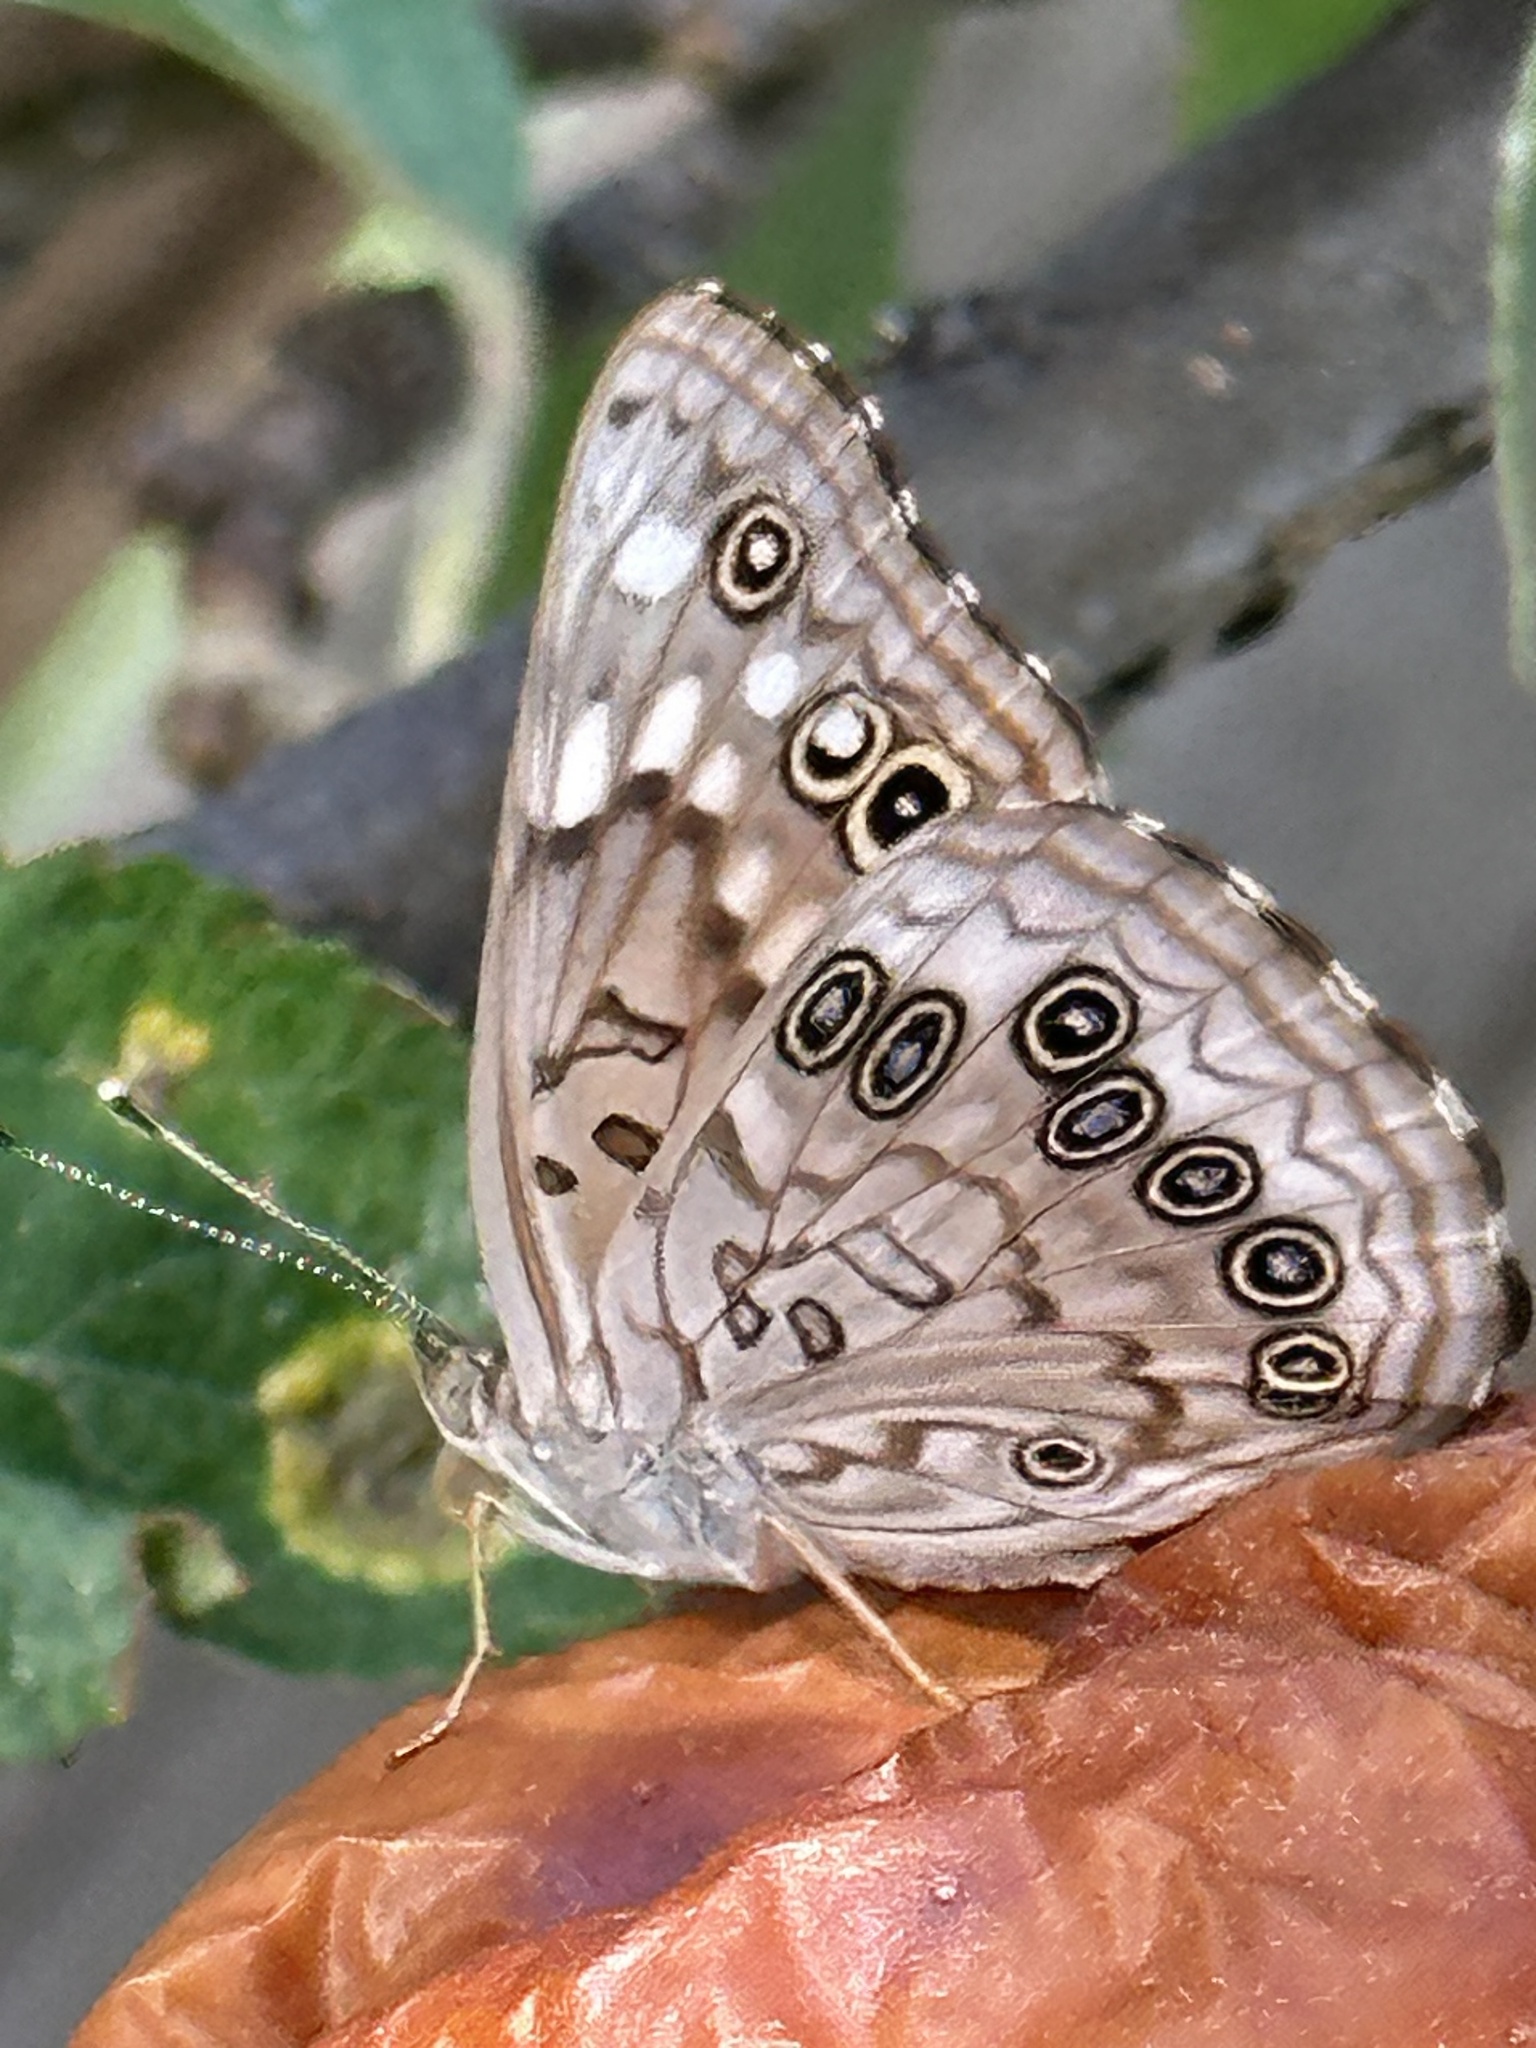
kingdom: Animalia
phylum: Arthropoda
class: Insecta
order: Lepidoptera
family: Nymphalidae
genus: Asterocampa
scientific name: Asterocampa celtis
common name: Hackberry emperor
